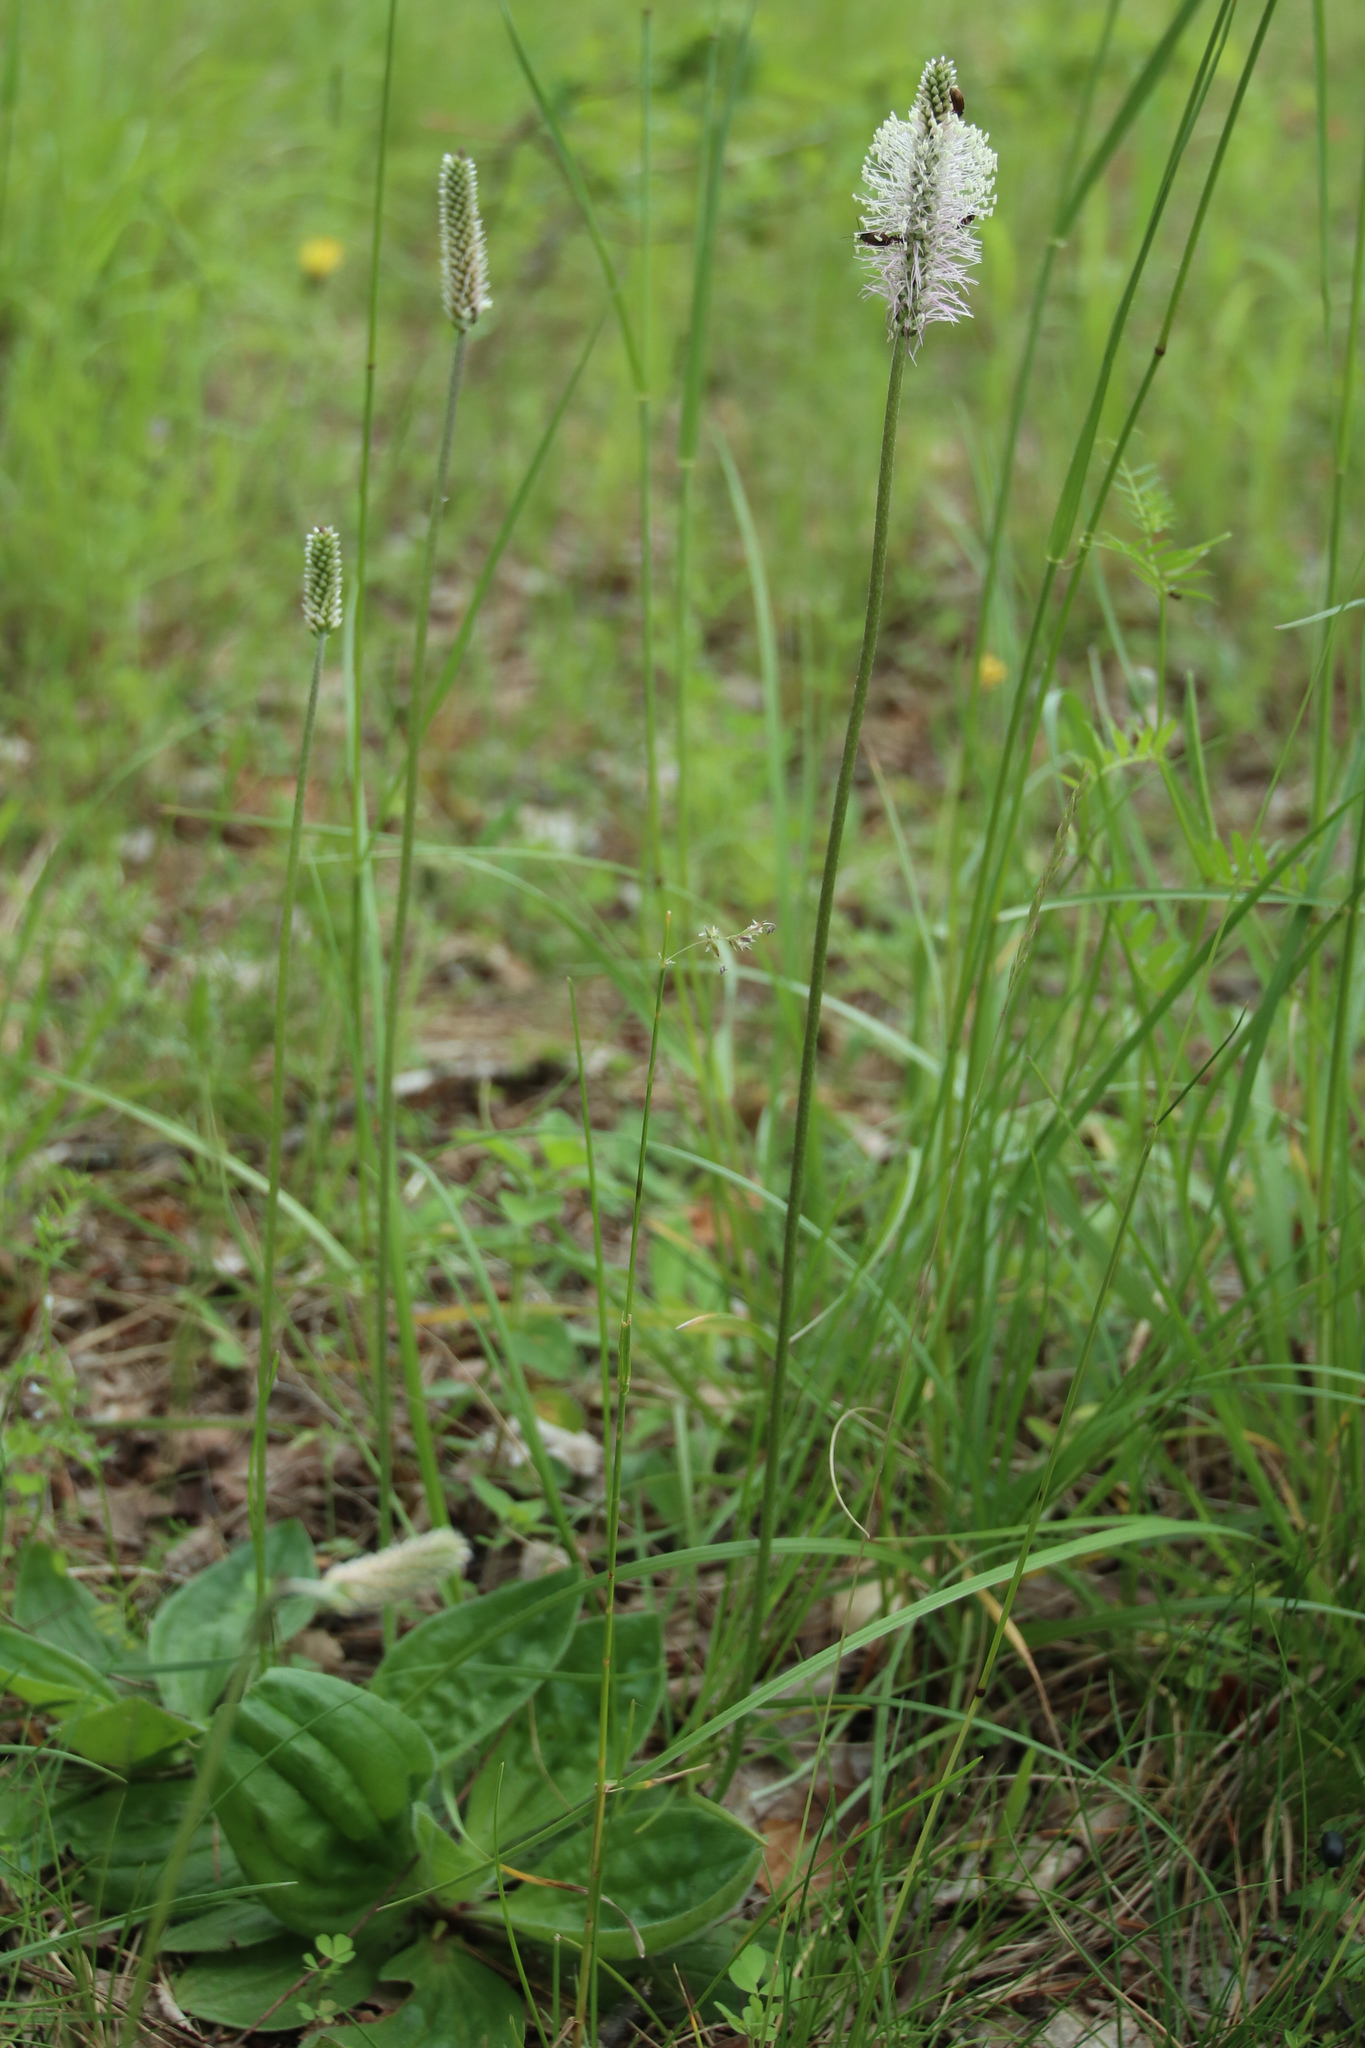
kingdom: Plantae
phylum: Tracheophyta
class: Magnoliopsida
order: Lamiales
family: Plantaginaceae
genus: Plantago
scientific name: Plantago media
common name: Hoary plantain
